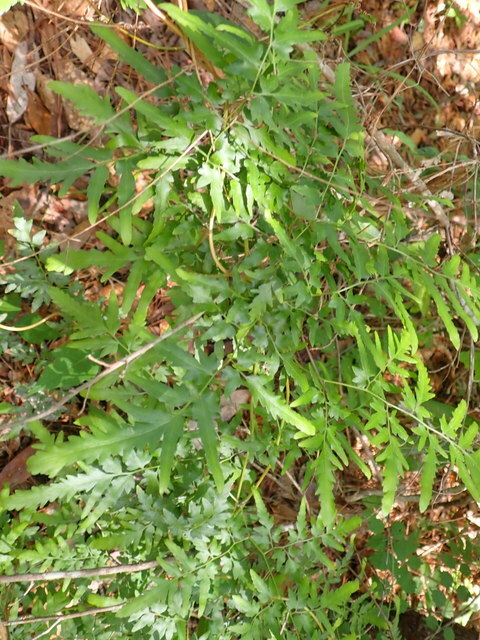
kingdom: Plantae
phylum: Tracheophyta
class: Polypodiopsida
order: Schizaeales
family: Lygodiaceae
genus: Lygodium
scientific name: Lygodium japonicum
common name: Japanese climbing fern
